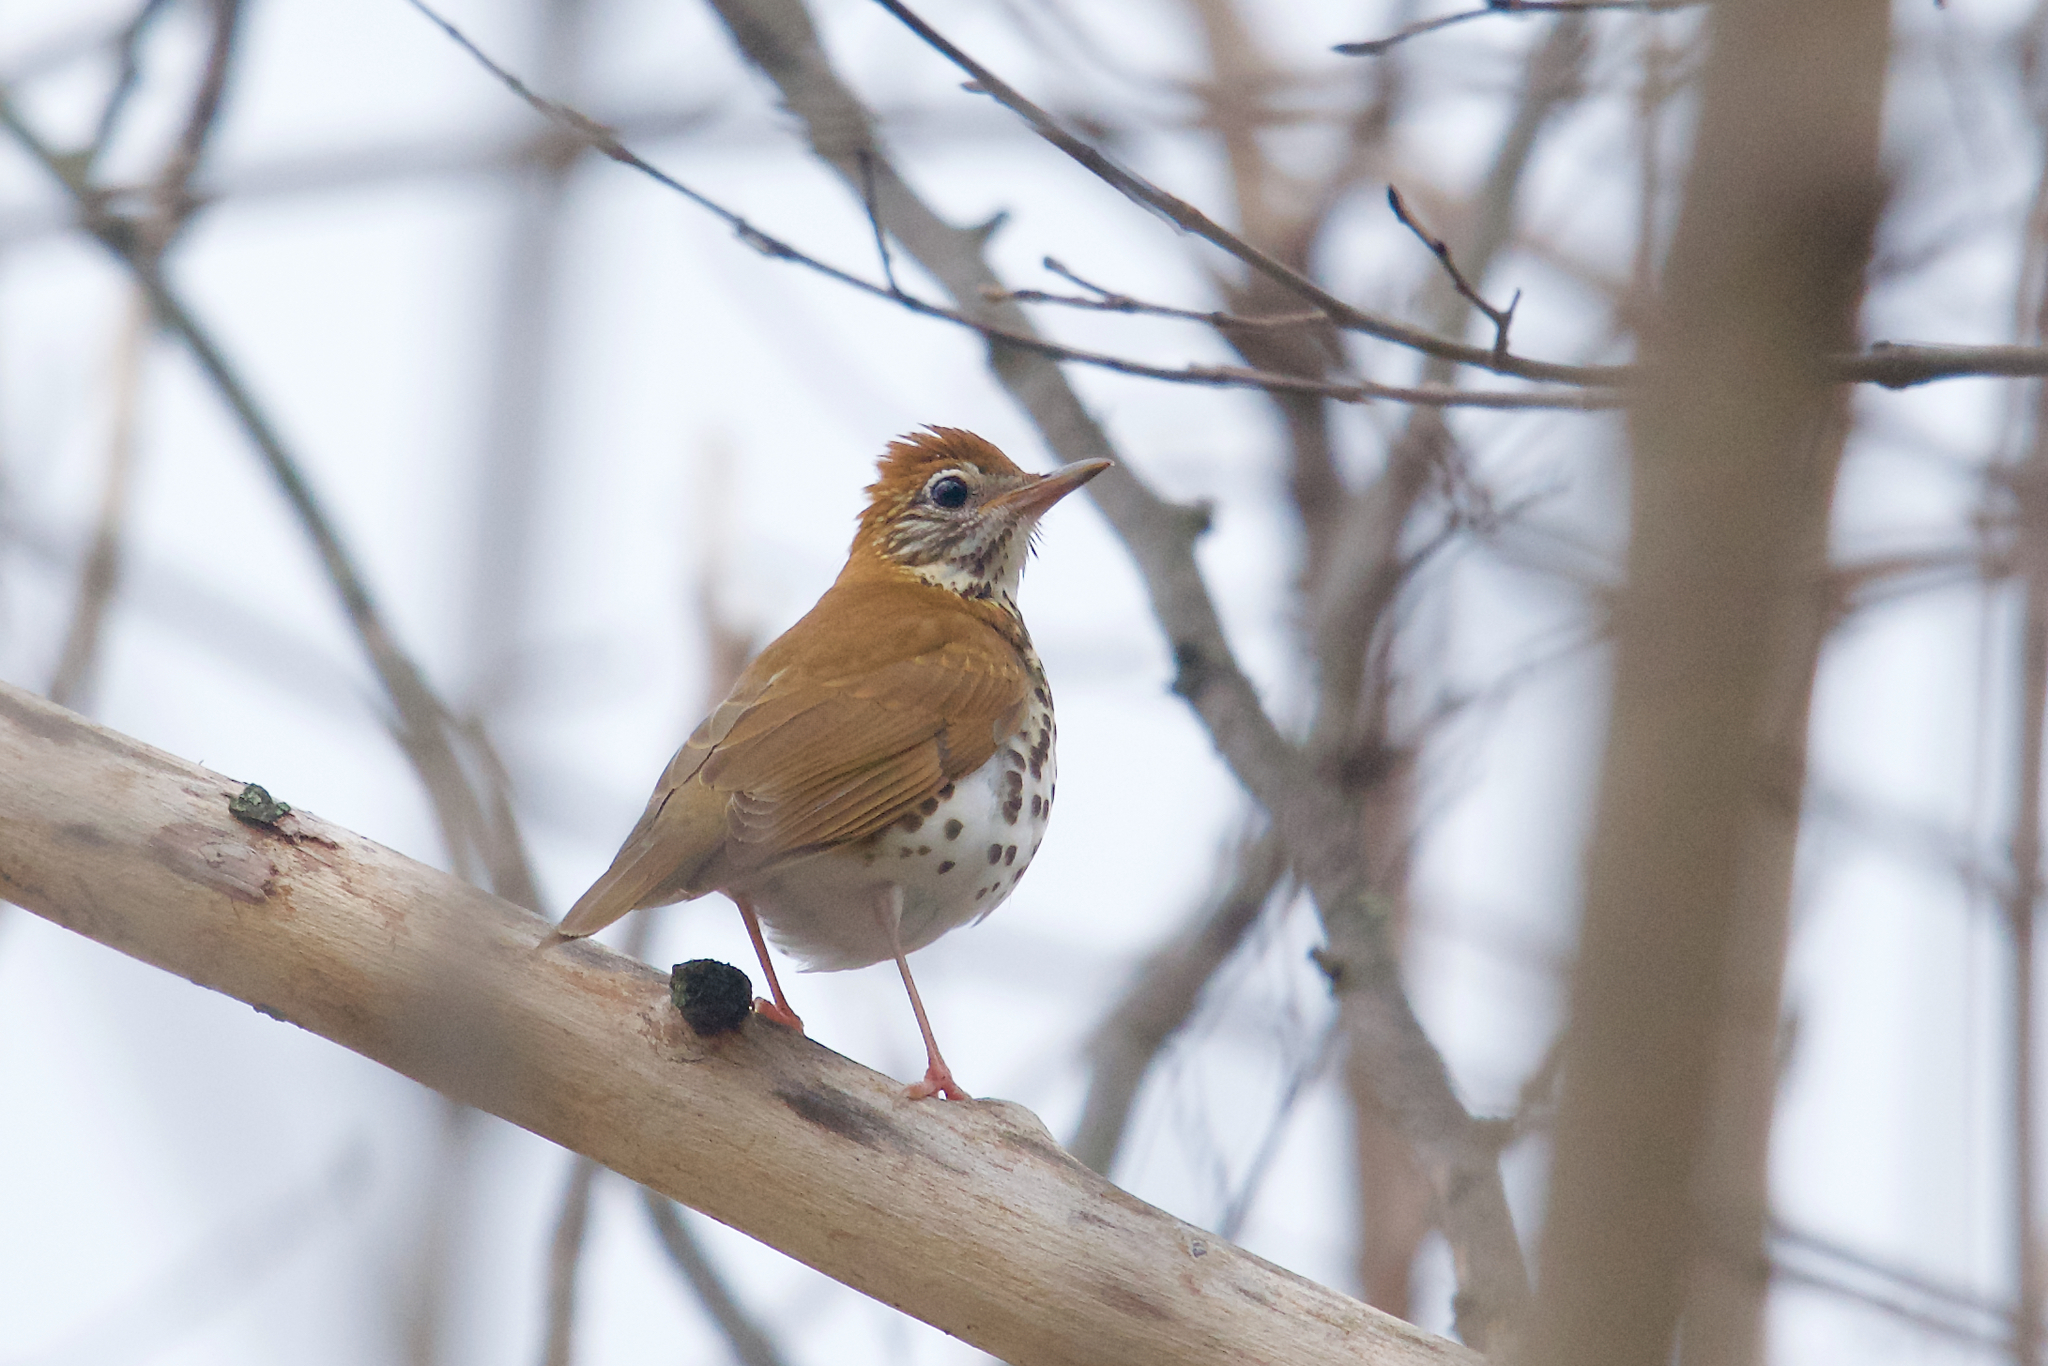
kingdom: Animalia
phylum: Chordata
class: Aves
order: Passeriformes
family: Turdidae
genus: Hylocichla
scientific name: Hylocichla mustelina
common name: Wood thrush
